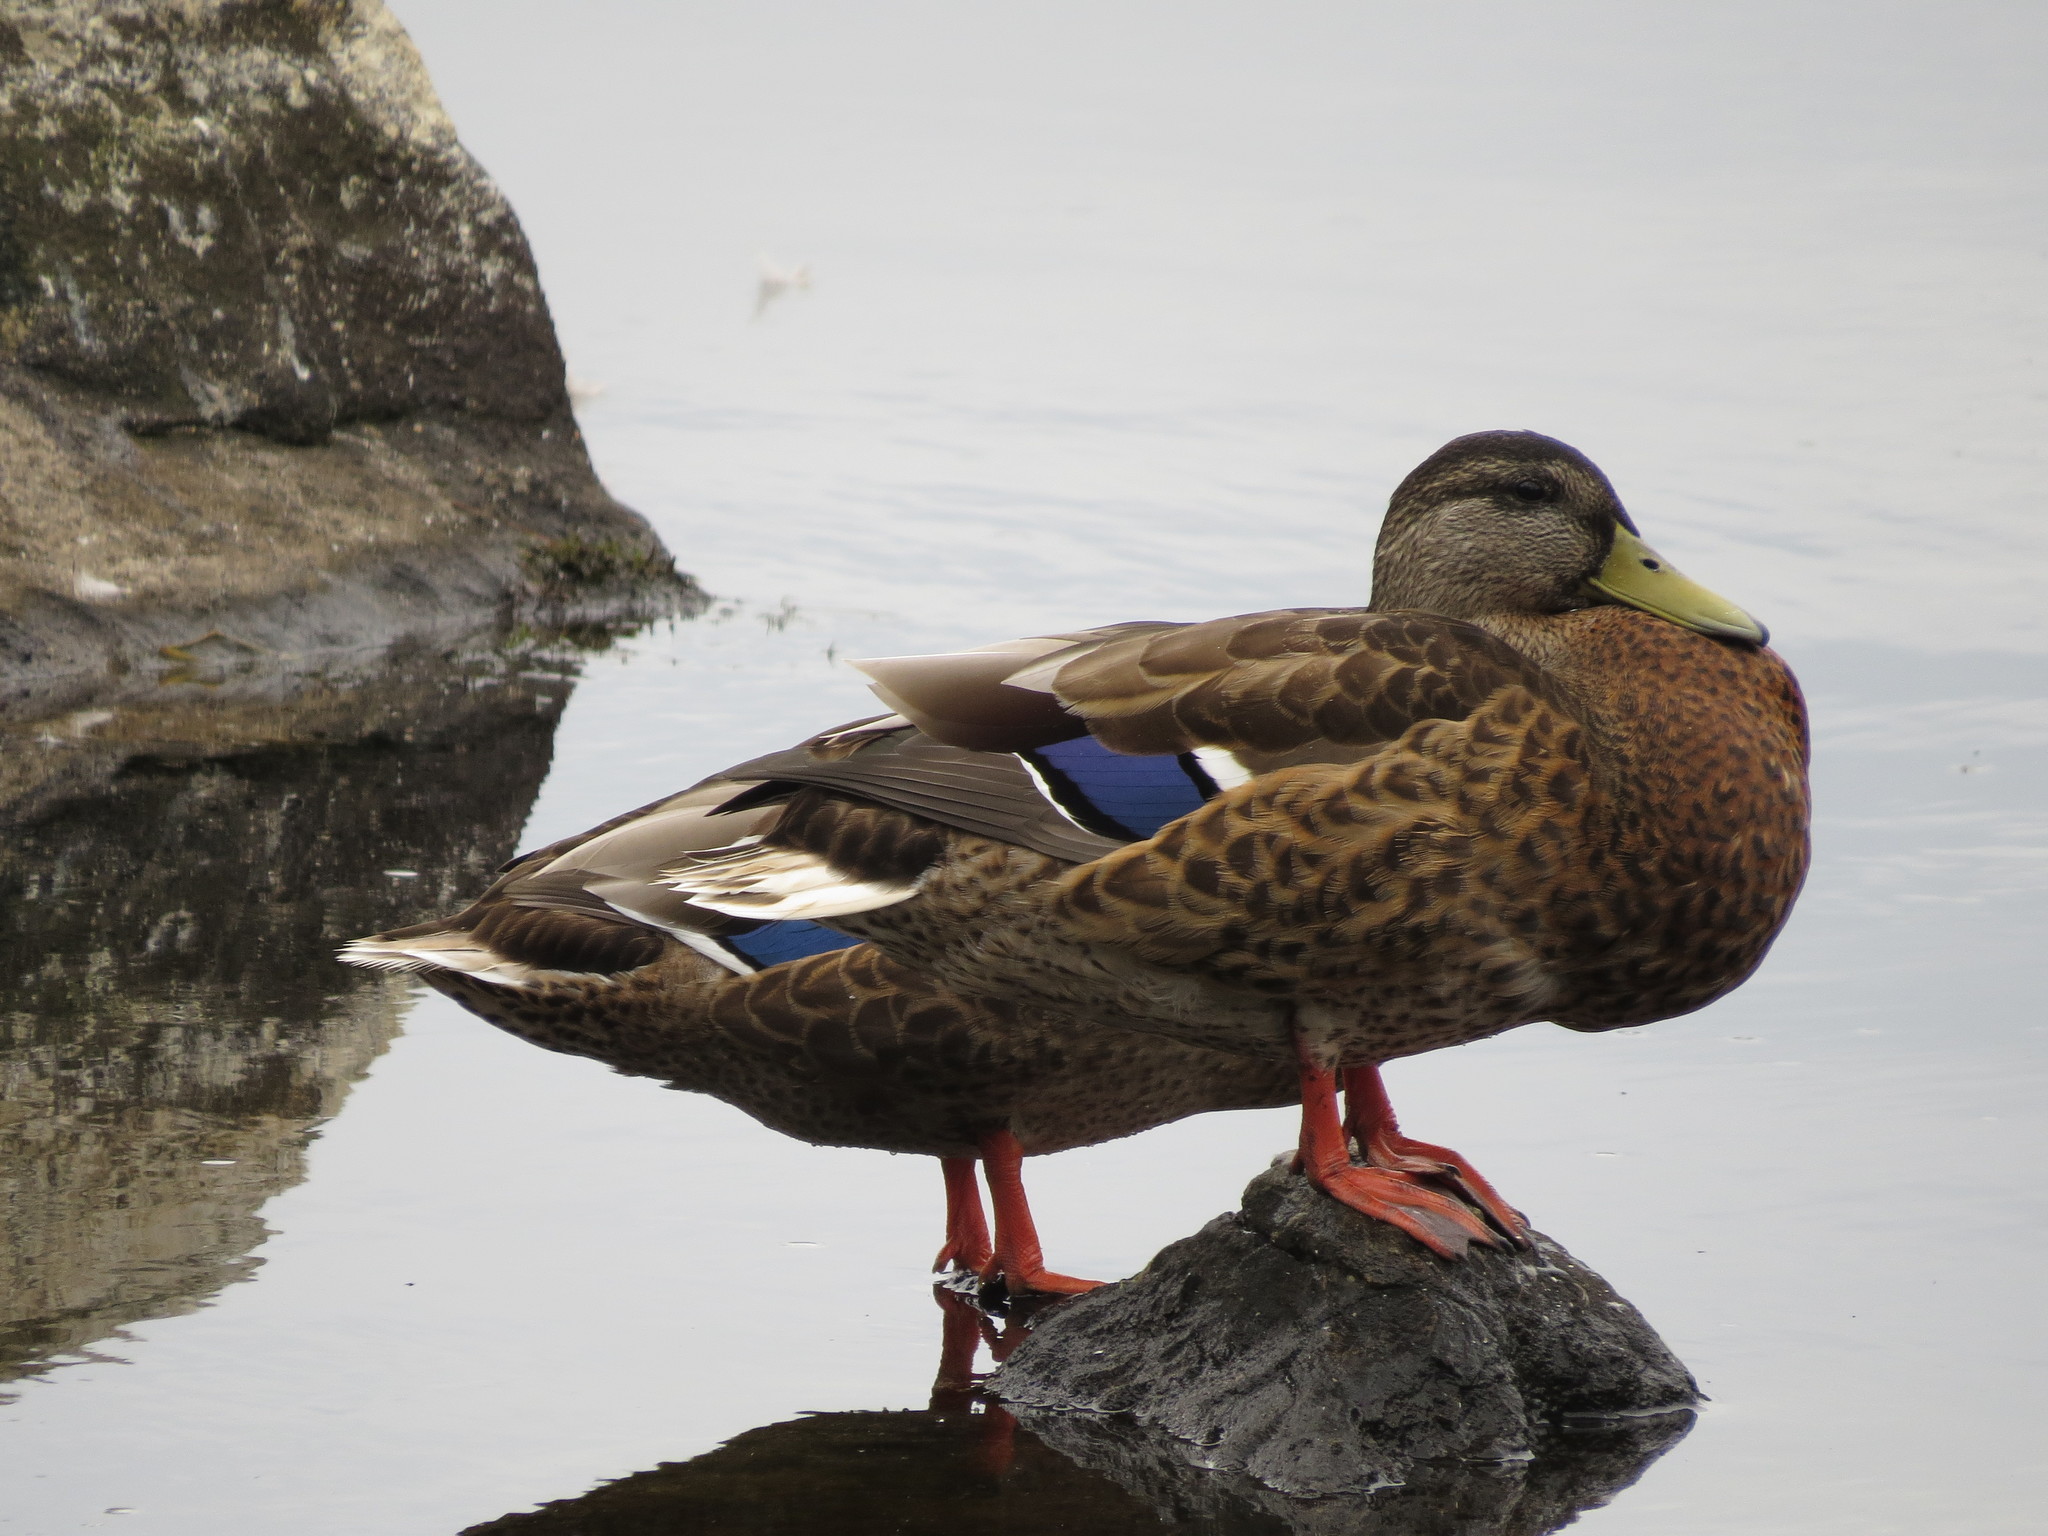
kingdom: Animalia
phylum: Chordata
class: Aves
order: Anseriformes
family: Anatidae
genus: Anas
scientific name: Anas platyrhynchos
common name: Mallard
